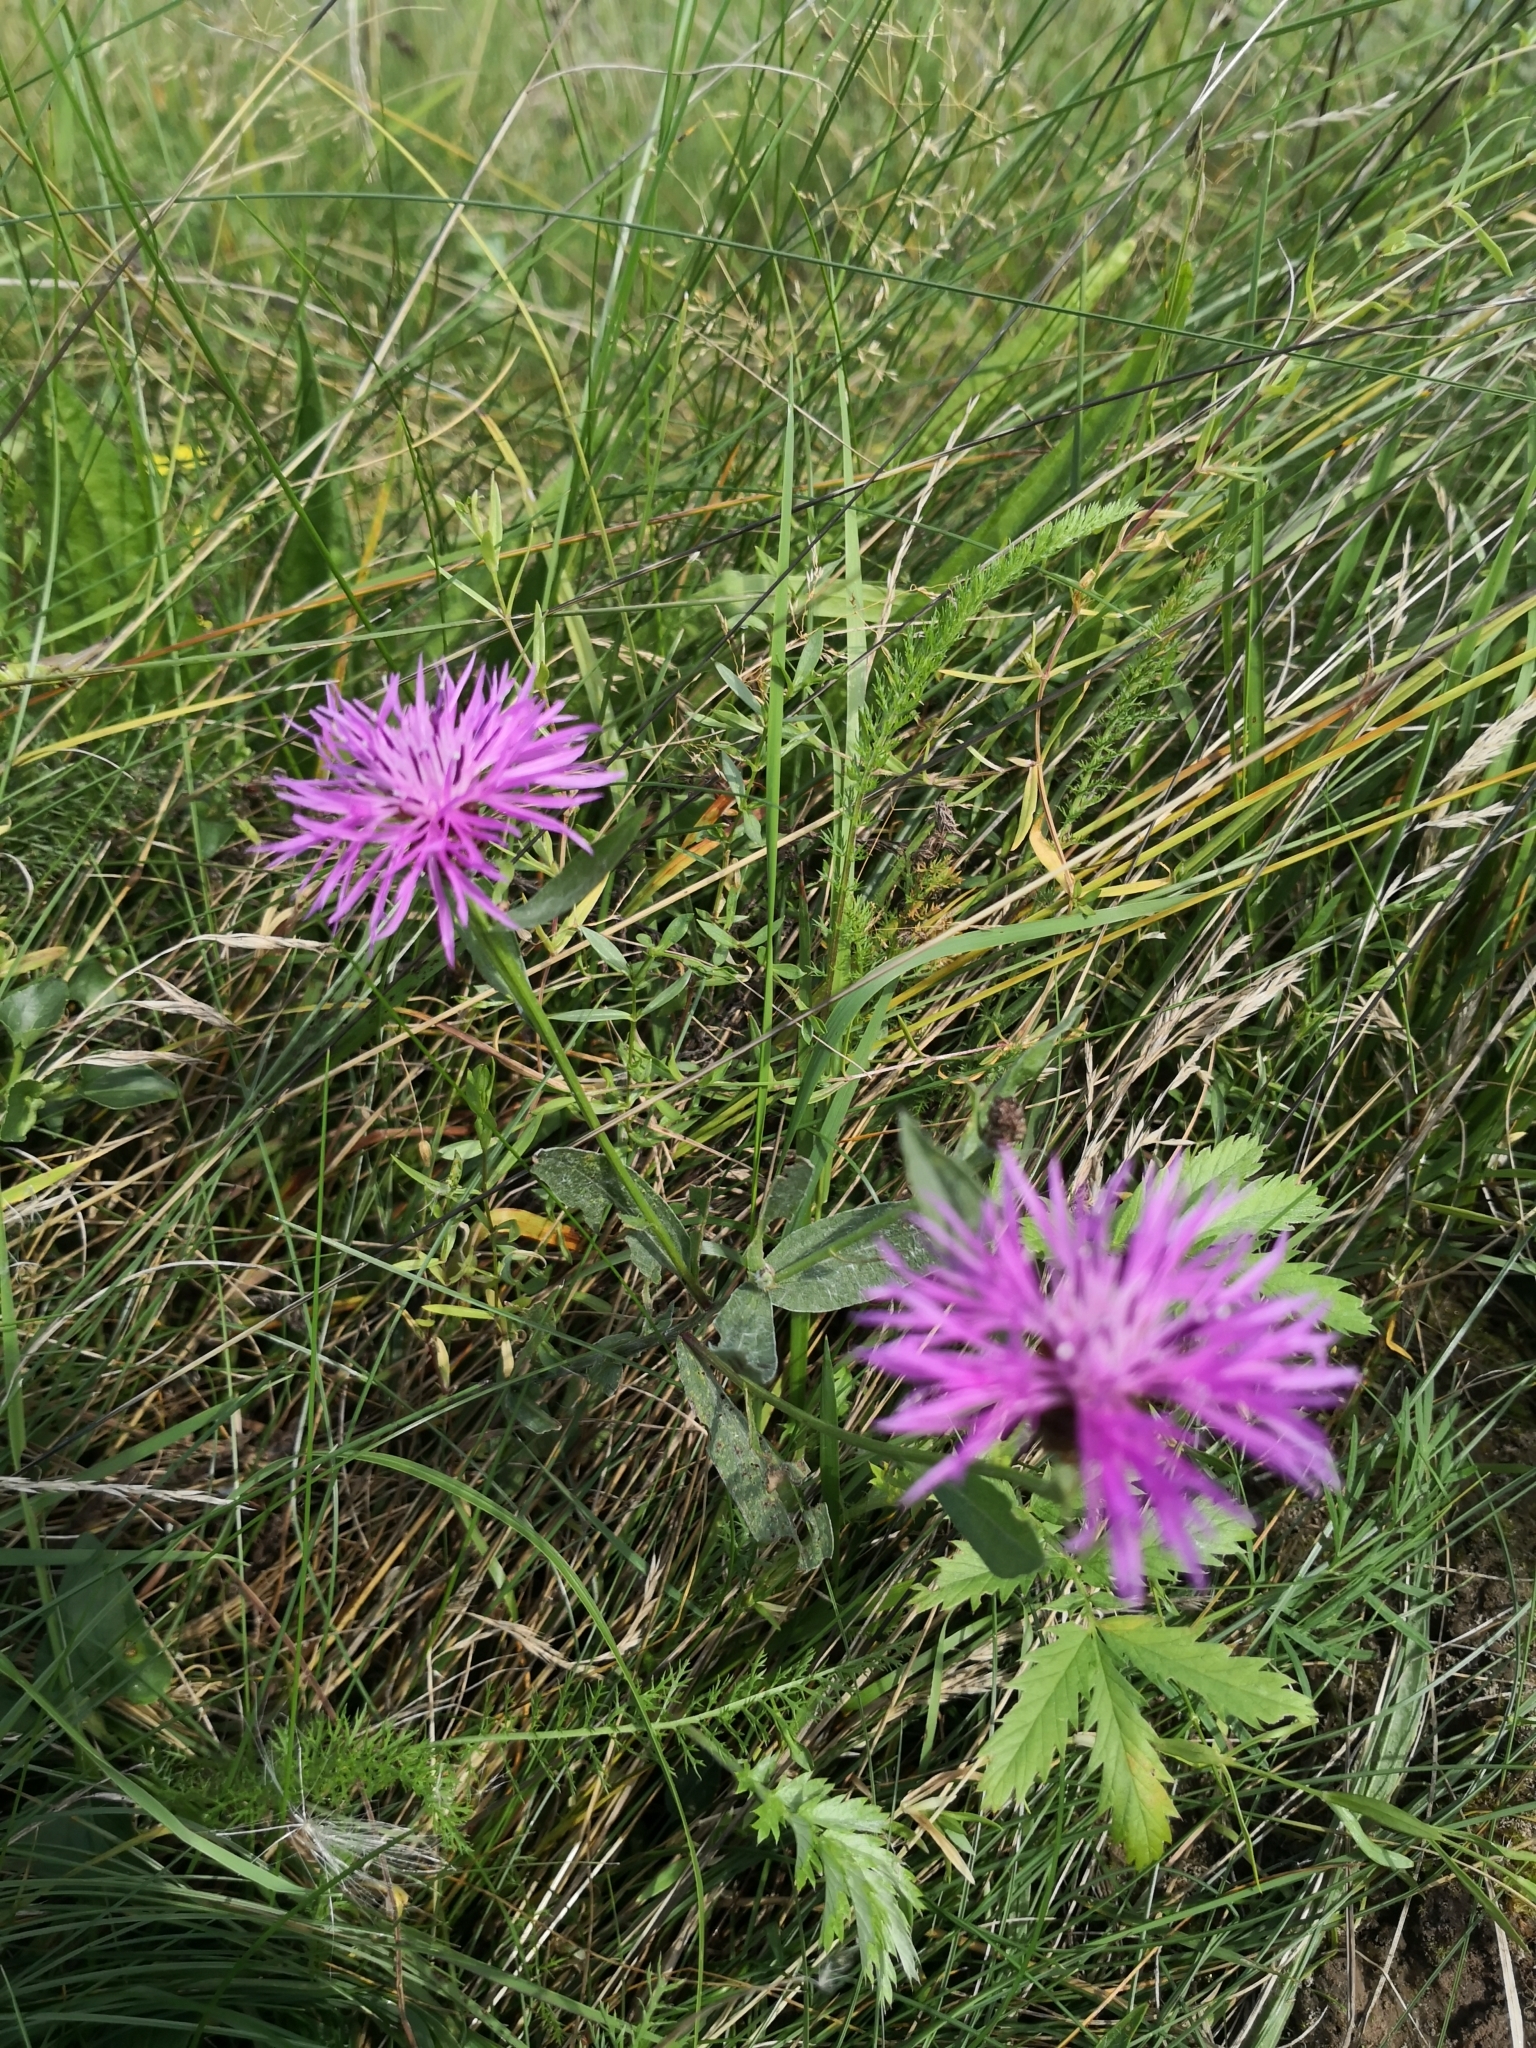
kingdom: Plantae
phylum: Tracheophyta
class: Magnoliopsida
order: Asterales
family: Asteraceae
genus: Centaurea
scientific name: Centaurea jacea
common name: Brown knapweed
